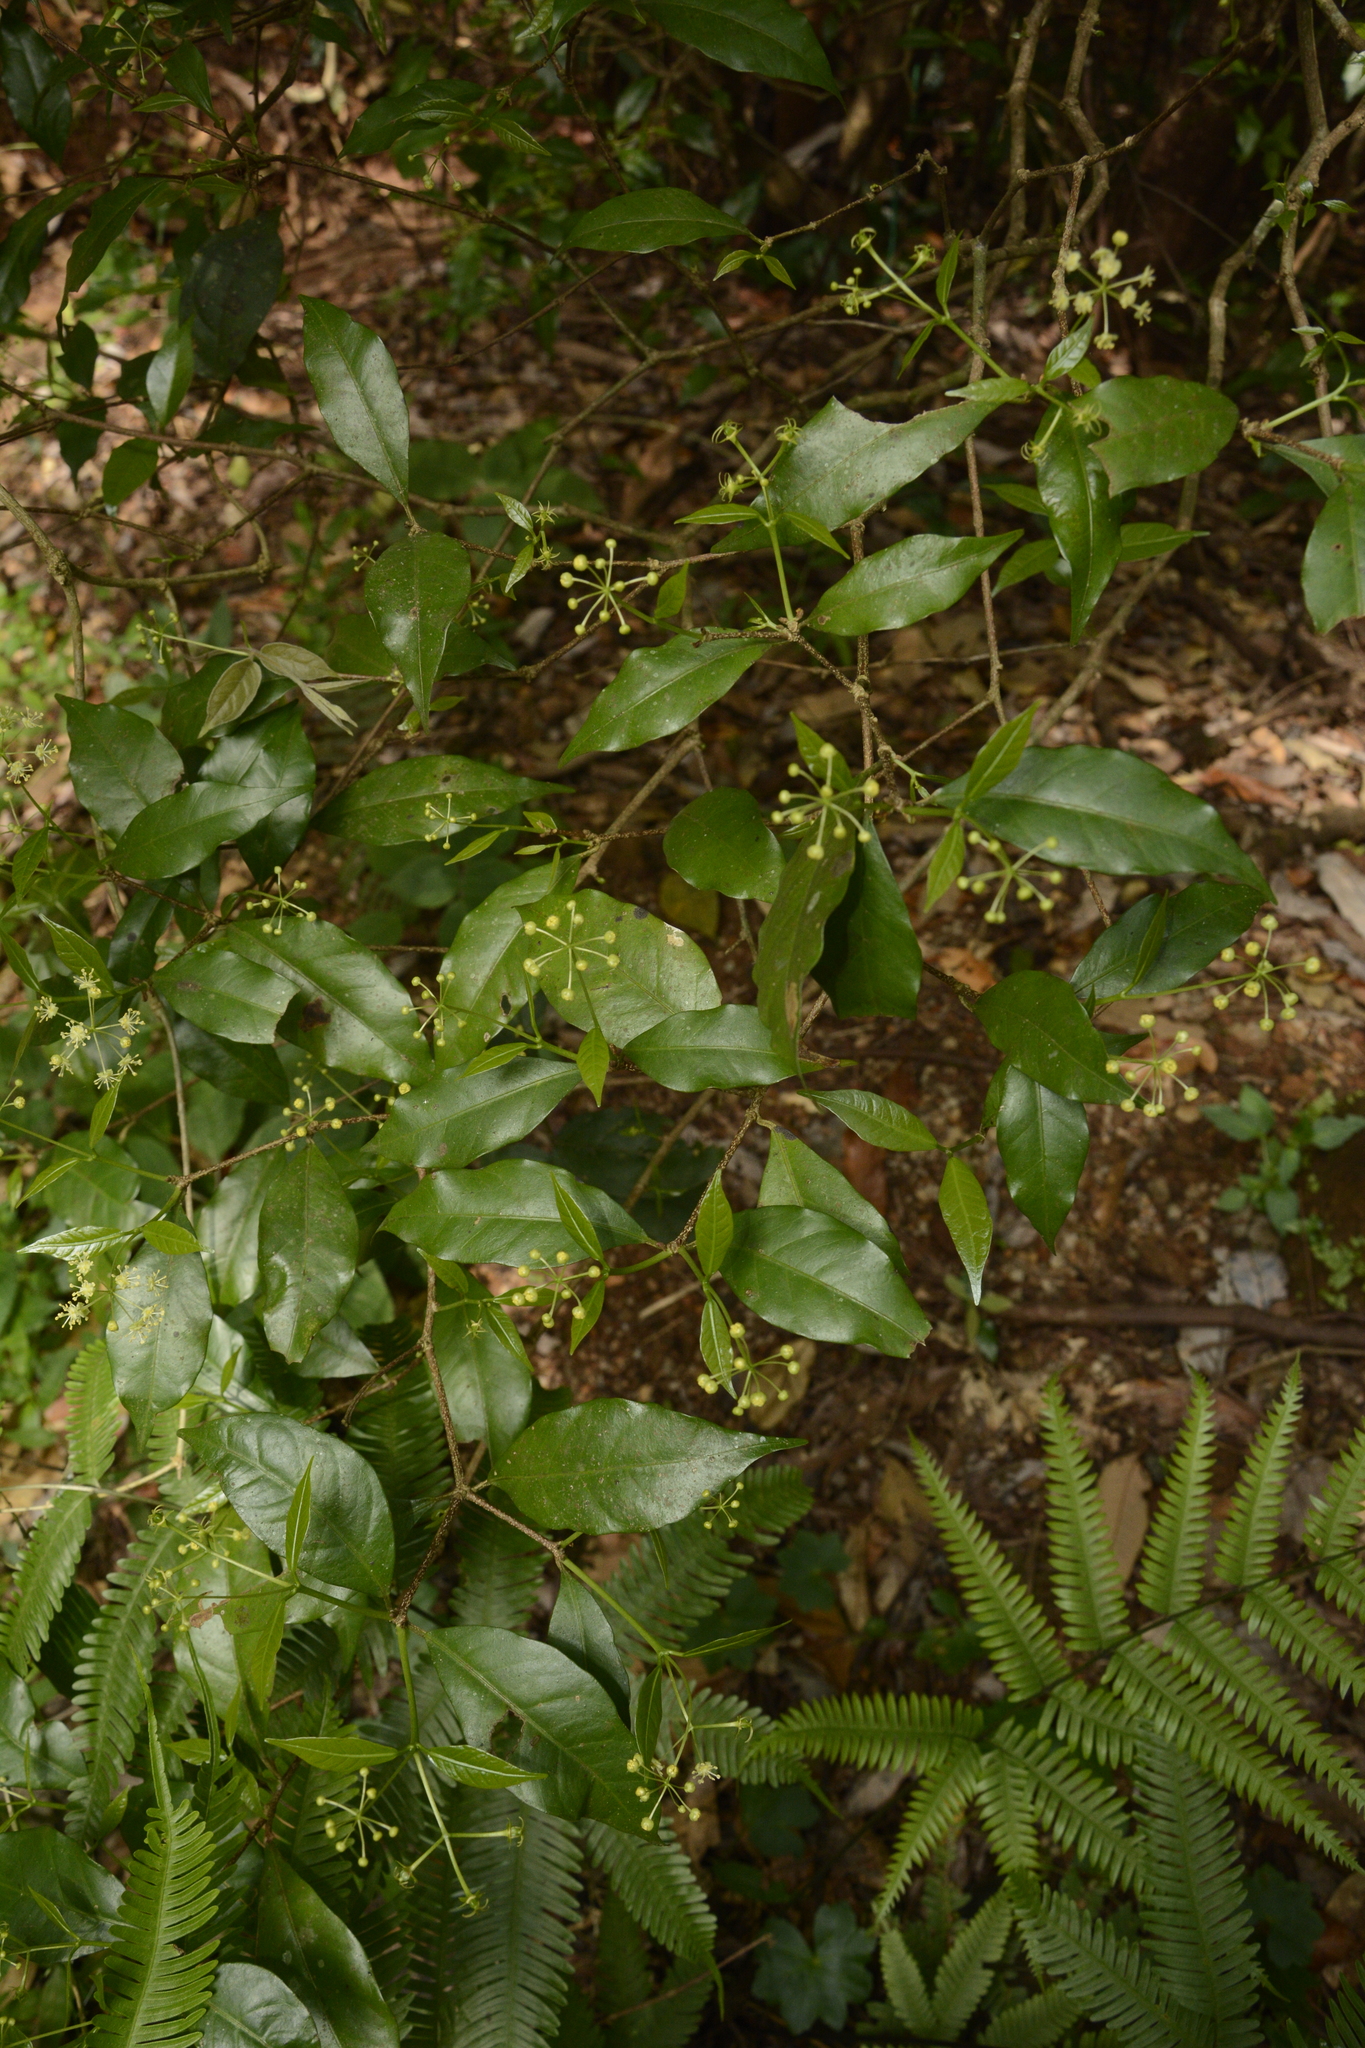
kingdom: Plantae
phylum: Tracheophyta
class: Magnoliopsida
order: Malpighiales
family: Euphorbiaceae
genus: Blachia
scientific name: Blachia umbellata
